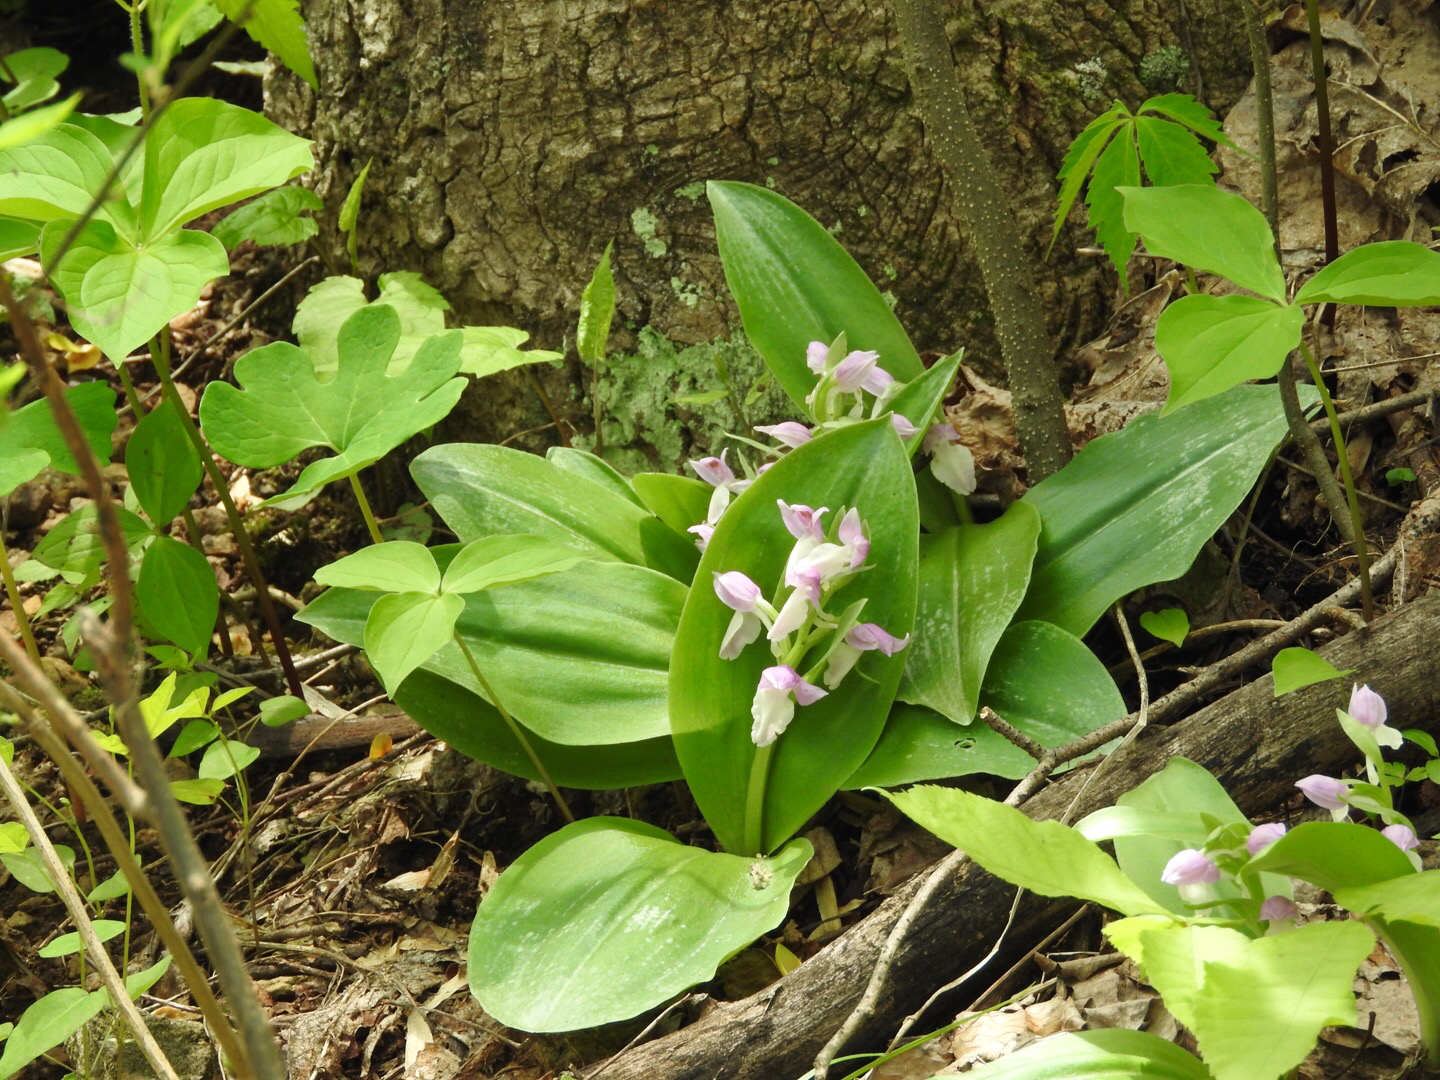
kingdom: Plantae
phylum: Tracheophyta
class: Liliopsida
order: Asparagales
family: Orchidaceae
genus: Galearis
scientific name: Galearis spectabilis
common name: Purple-hooded orchis
